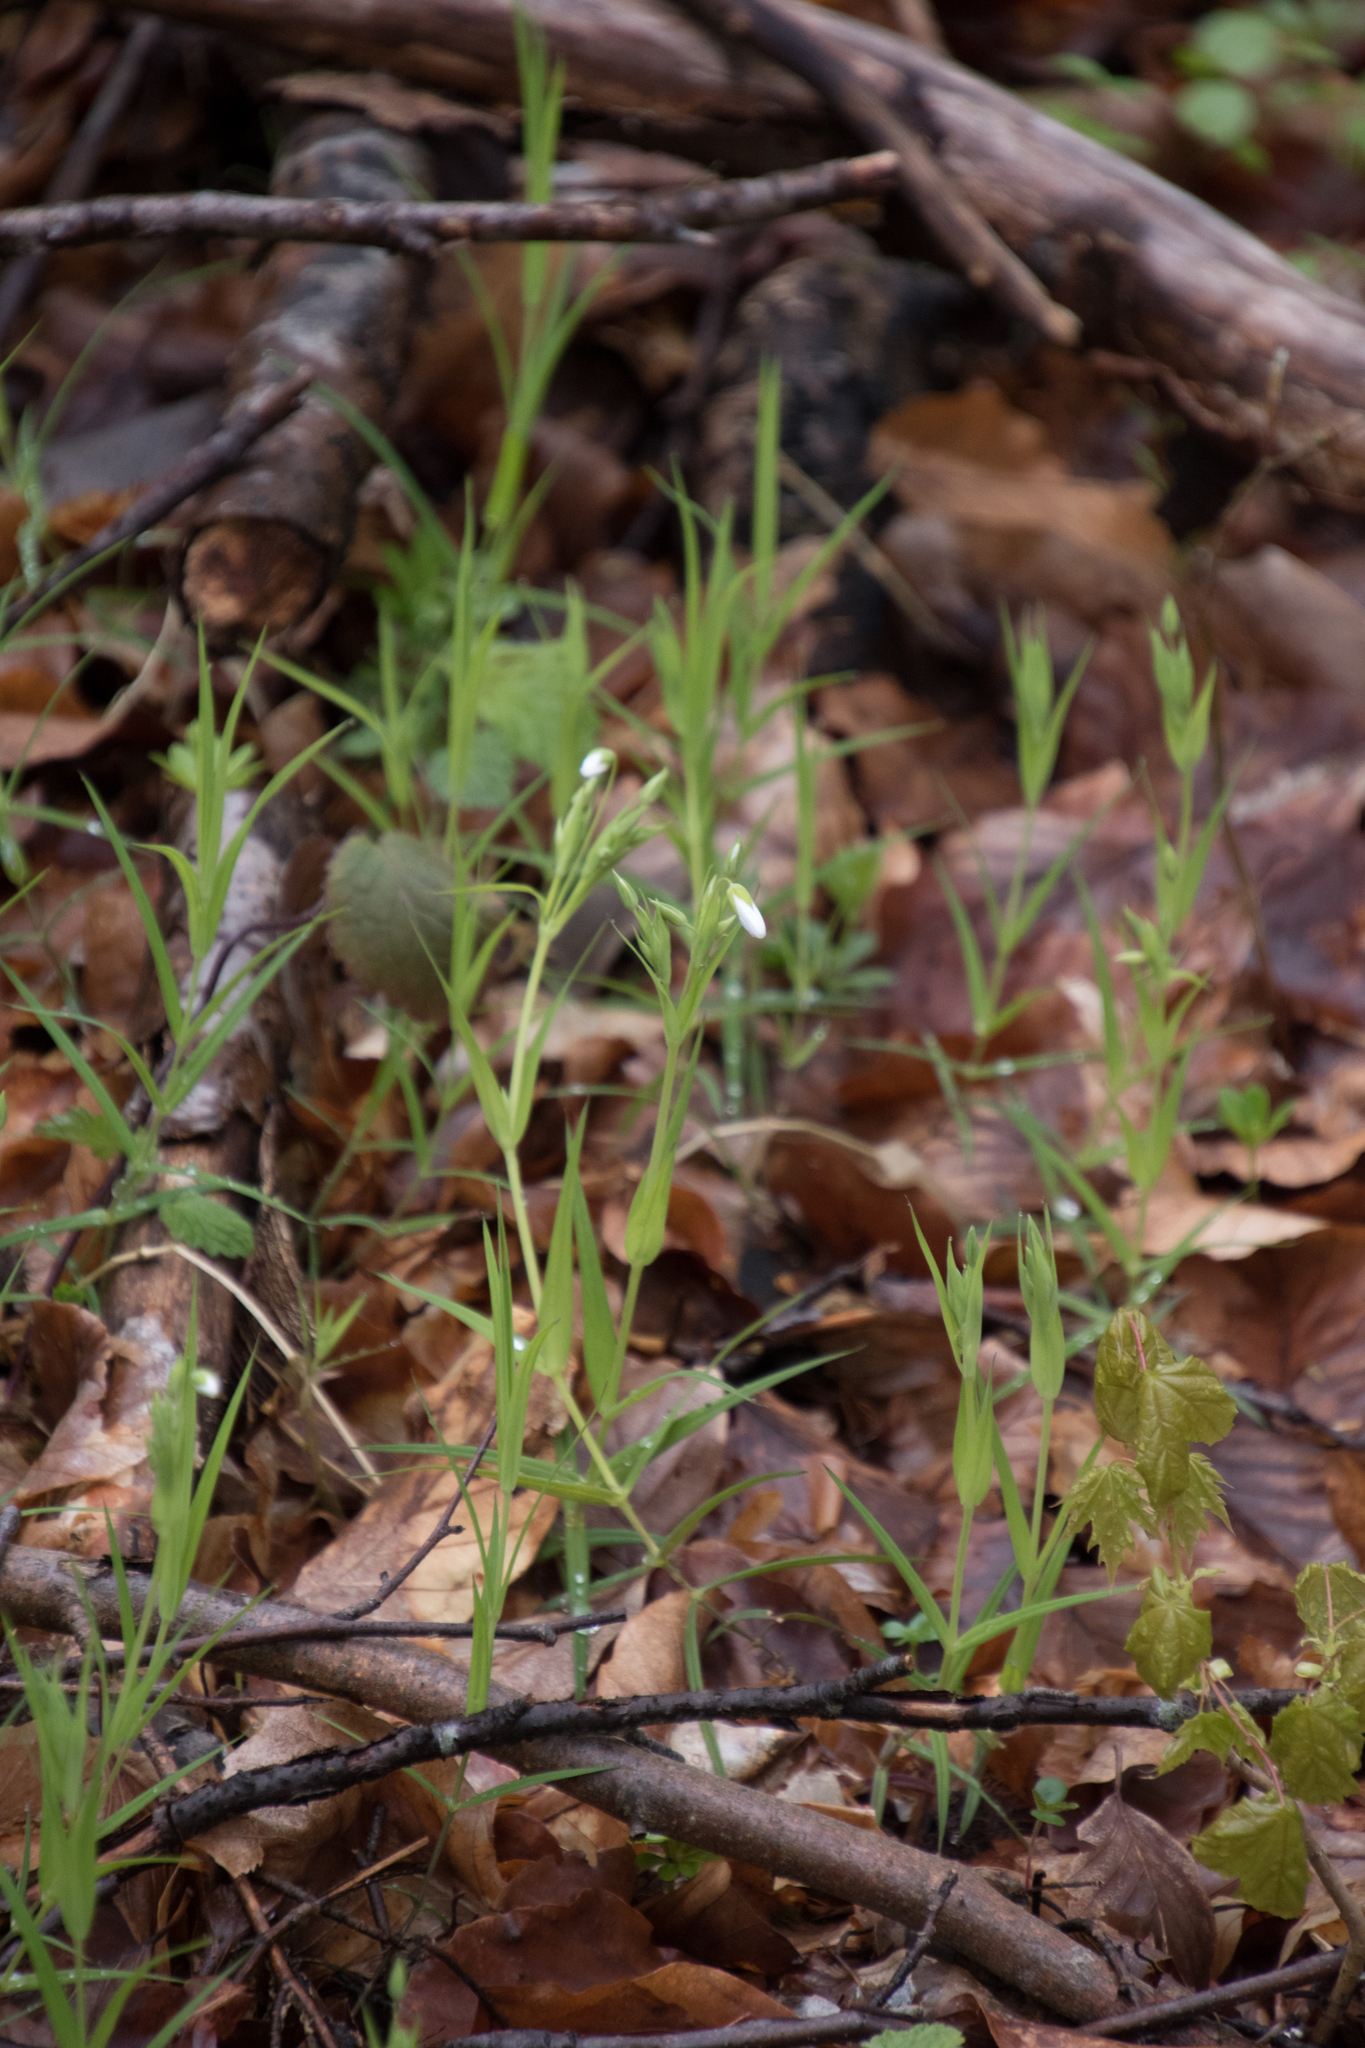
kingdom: Plantae
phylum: Tracheophyta
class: Magnoliopsida
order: Caryophyllales
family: Caryophyllaceae
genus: Rabelera
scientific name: Rabelera holostea
